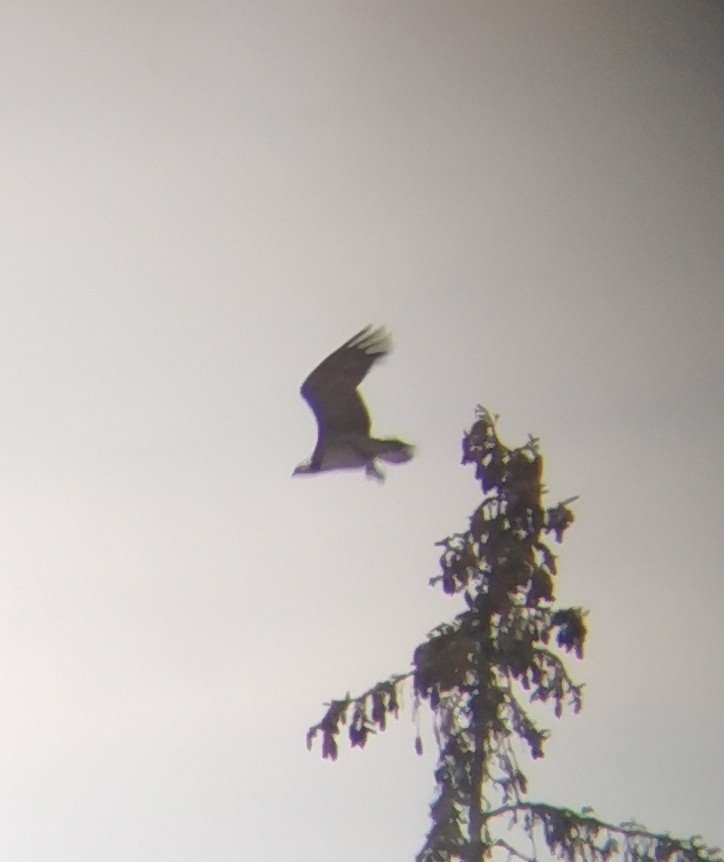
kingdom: Animalia
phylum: Chordata
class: Aves
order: Accipitriformes
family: Pandionidae
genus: Pandion
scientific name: Pandion haliaetus
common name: Osprey
